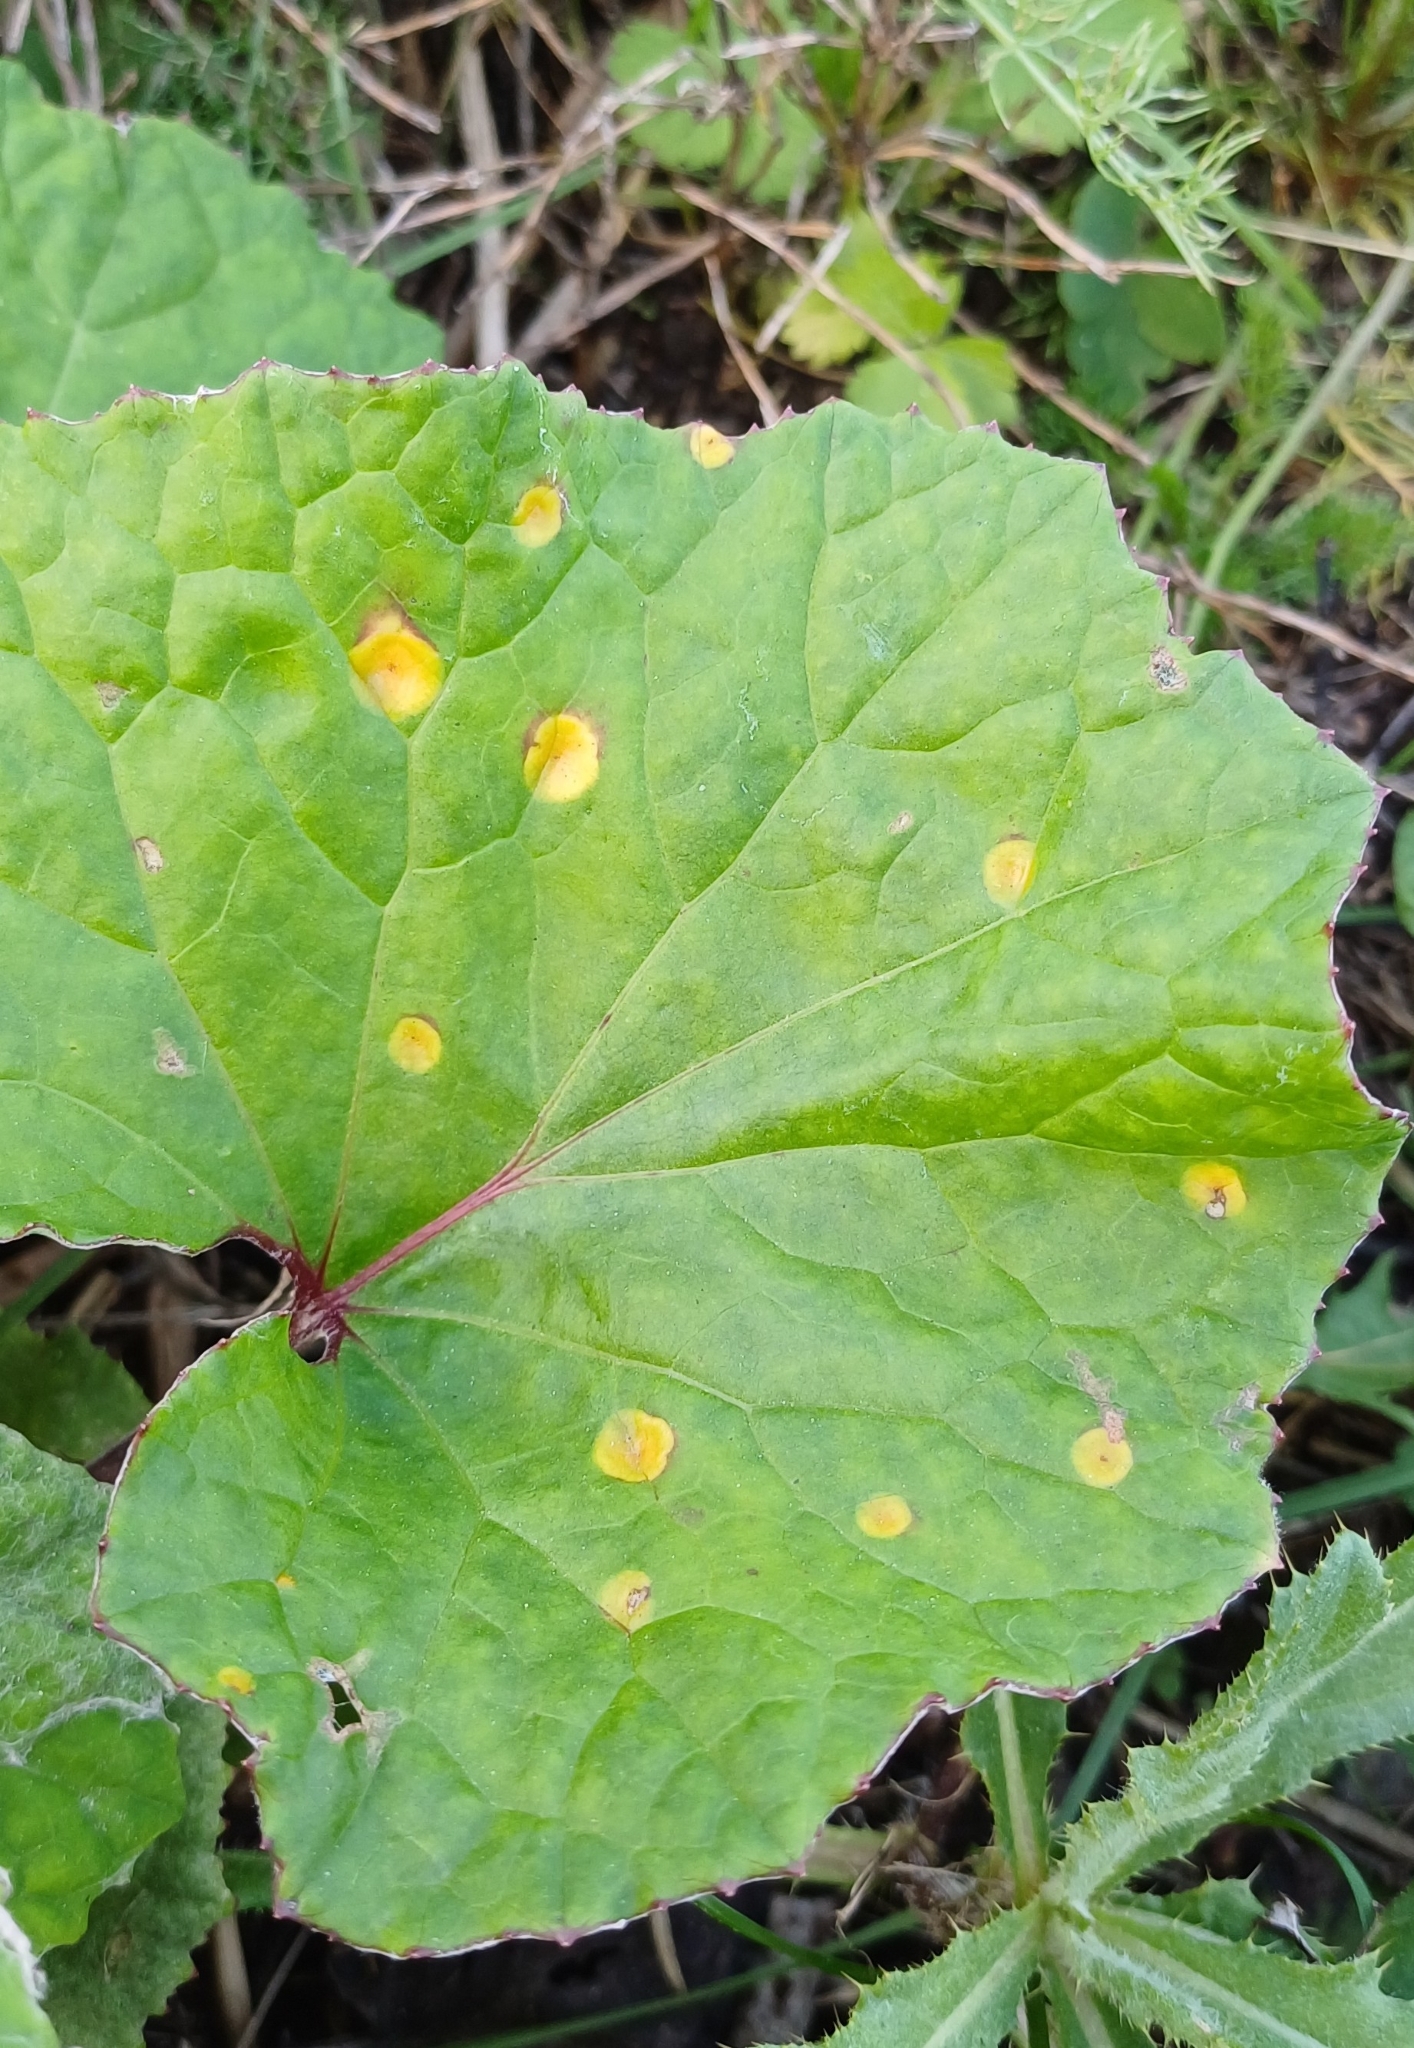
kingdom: Fungi
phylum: Basidiomycota
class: Pucciniomycetes
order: Pucciniales
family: Pucciniaceae
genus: Puccinia
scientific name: Puccinia poarum
